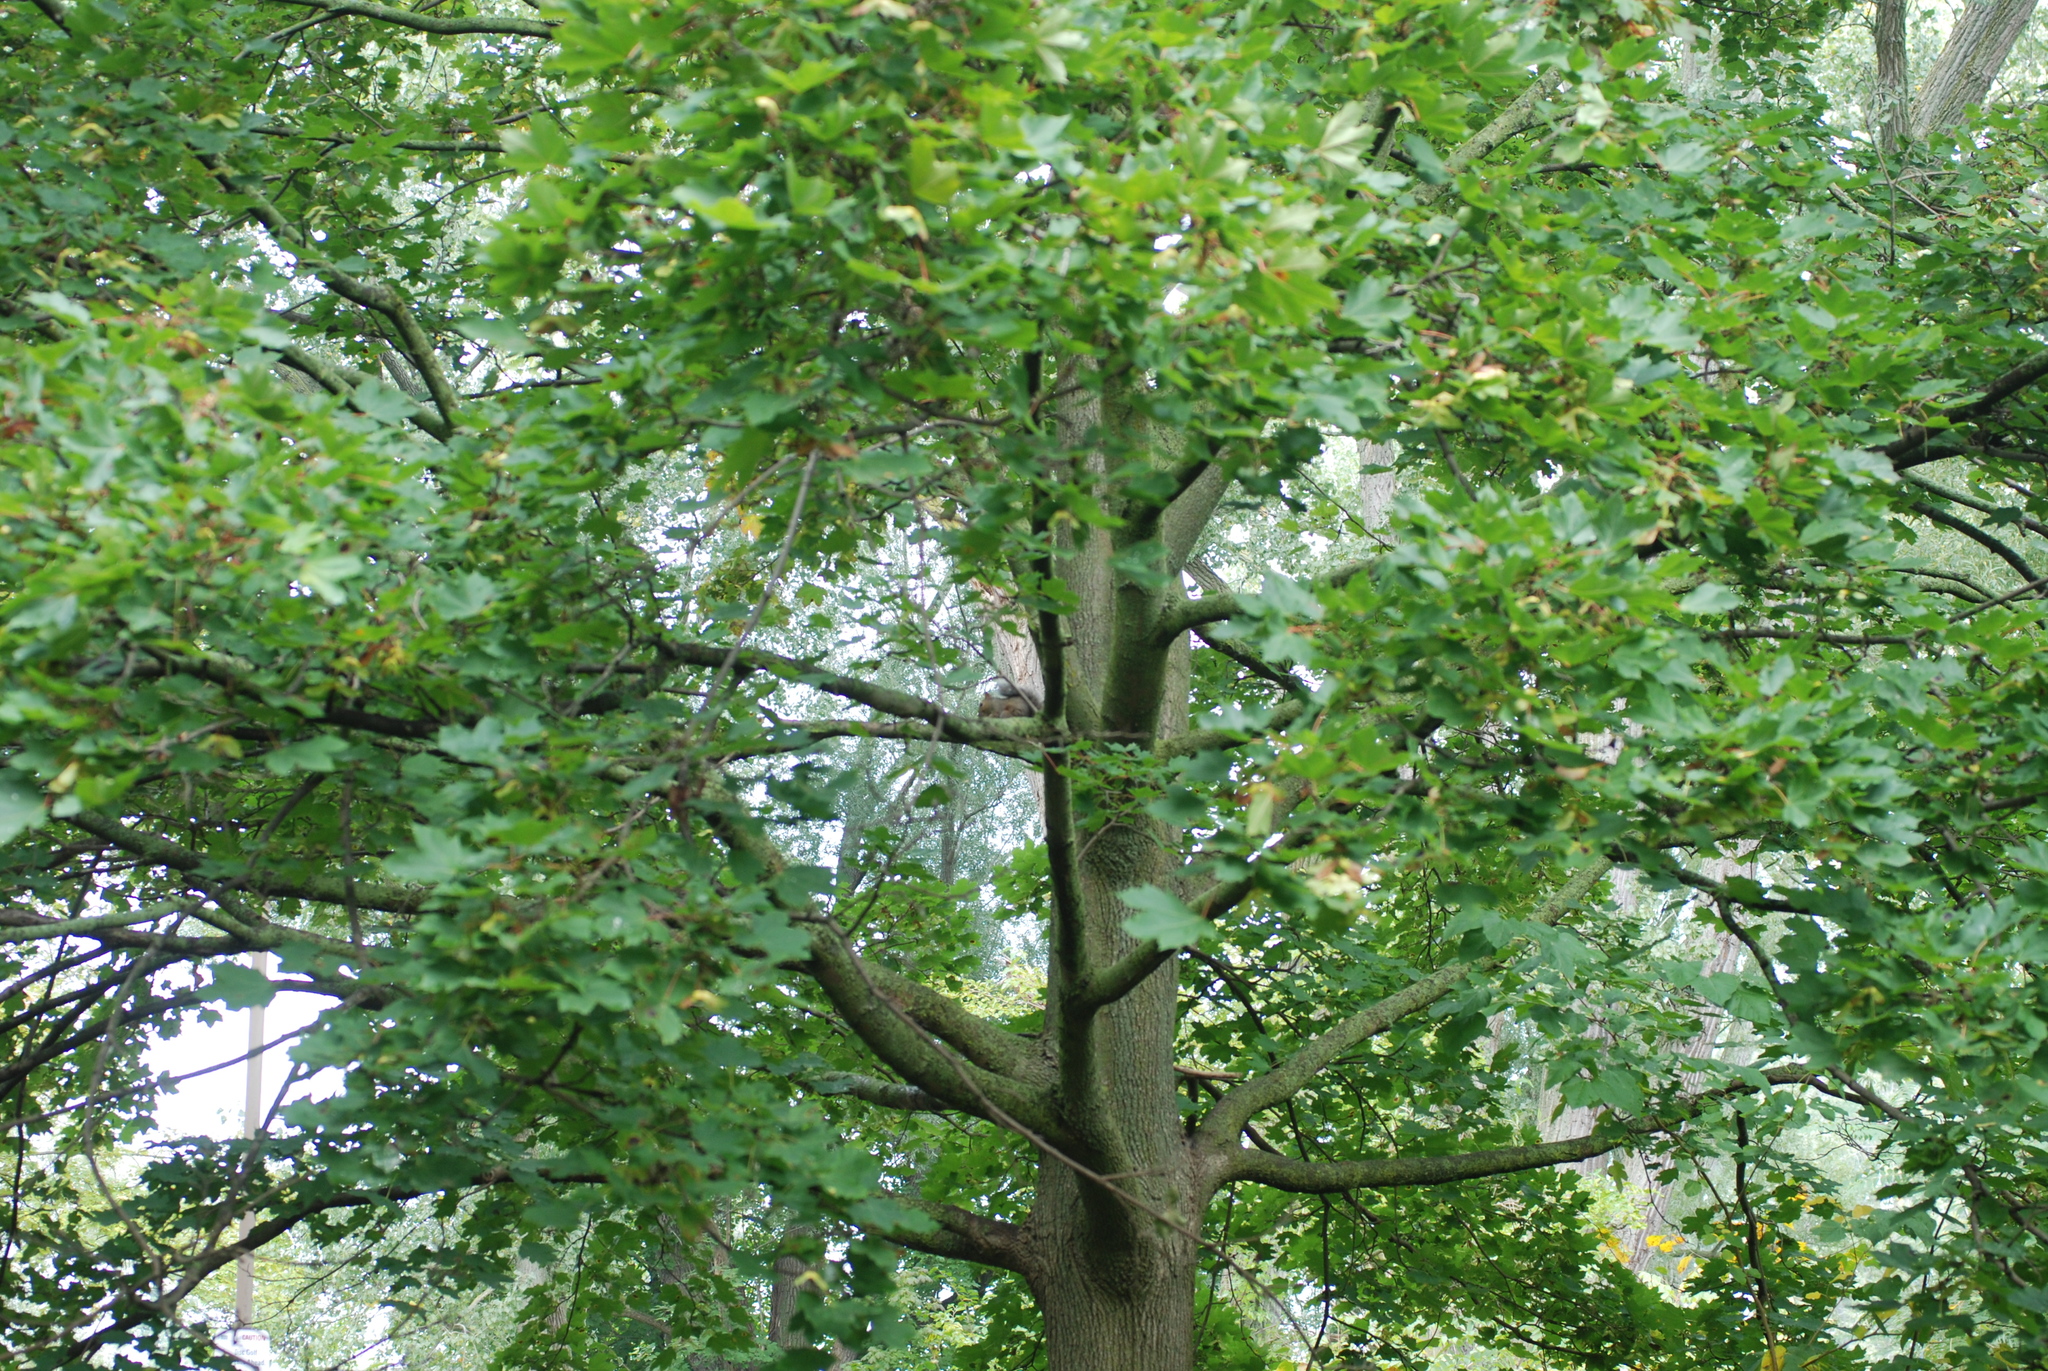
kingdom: Animalia
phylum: Chordata
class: Mammalia
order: Rodentia
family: Sciuridae
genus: Sciurus
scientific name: Sciurus carolinensis
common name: Eastern gray squirrel
